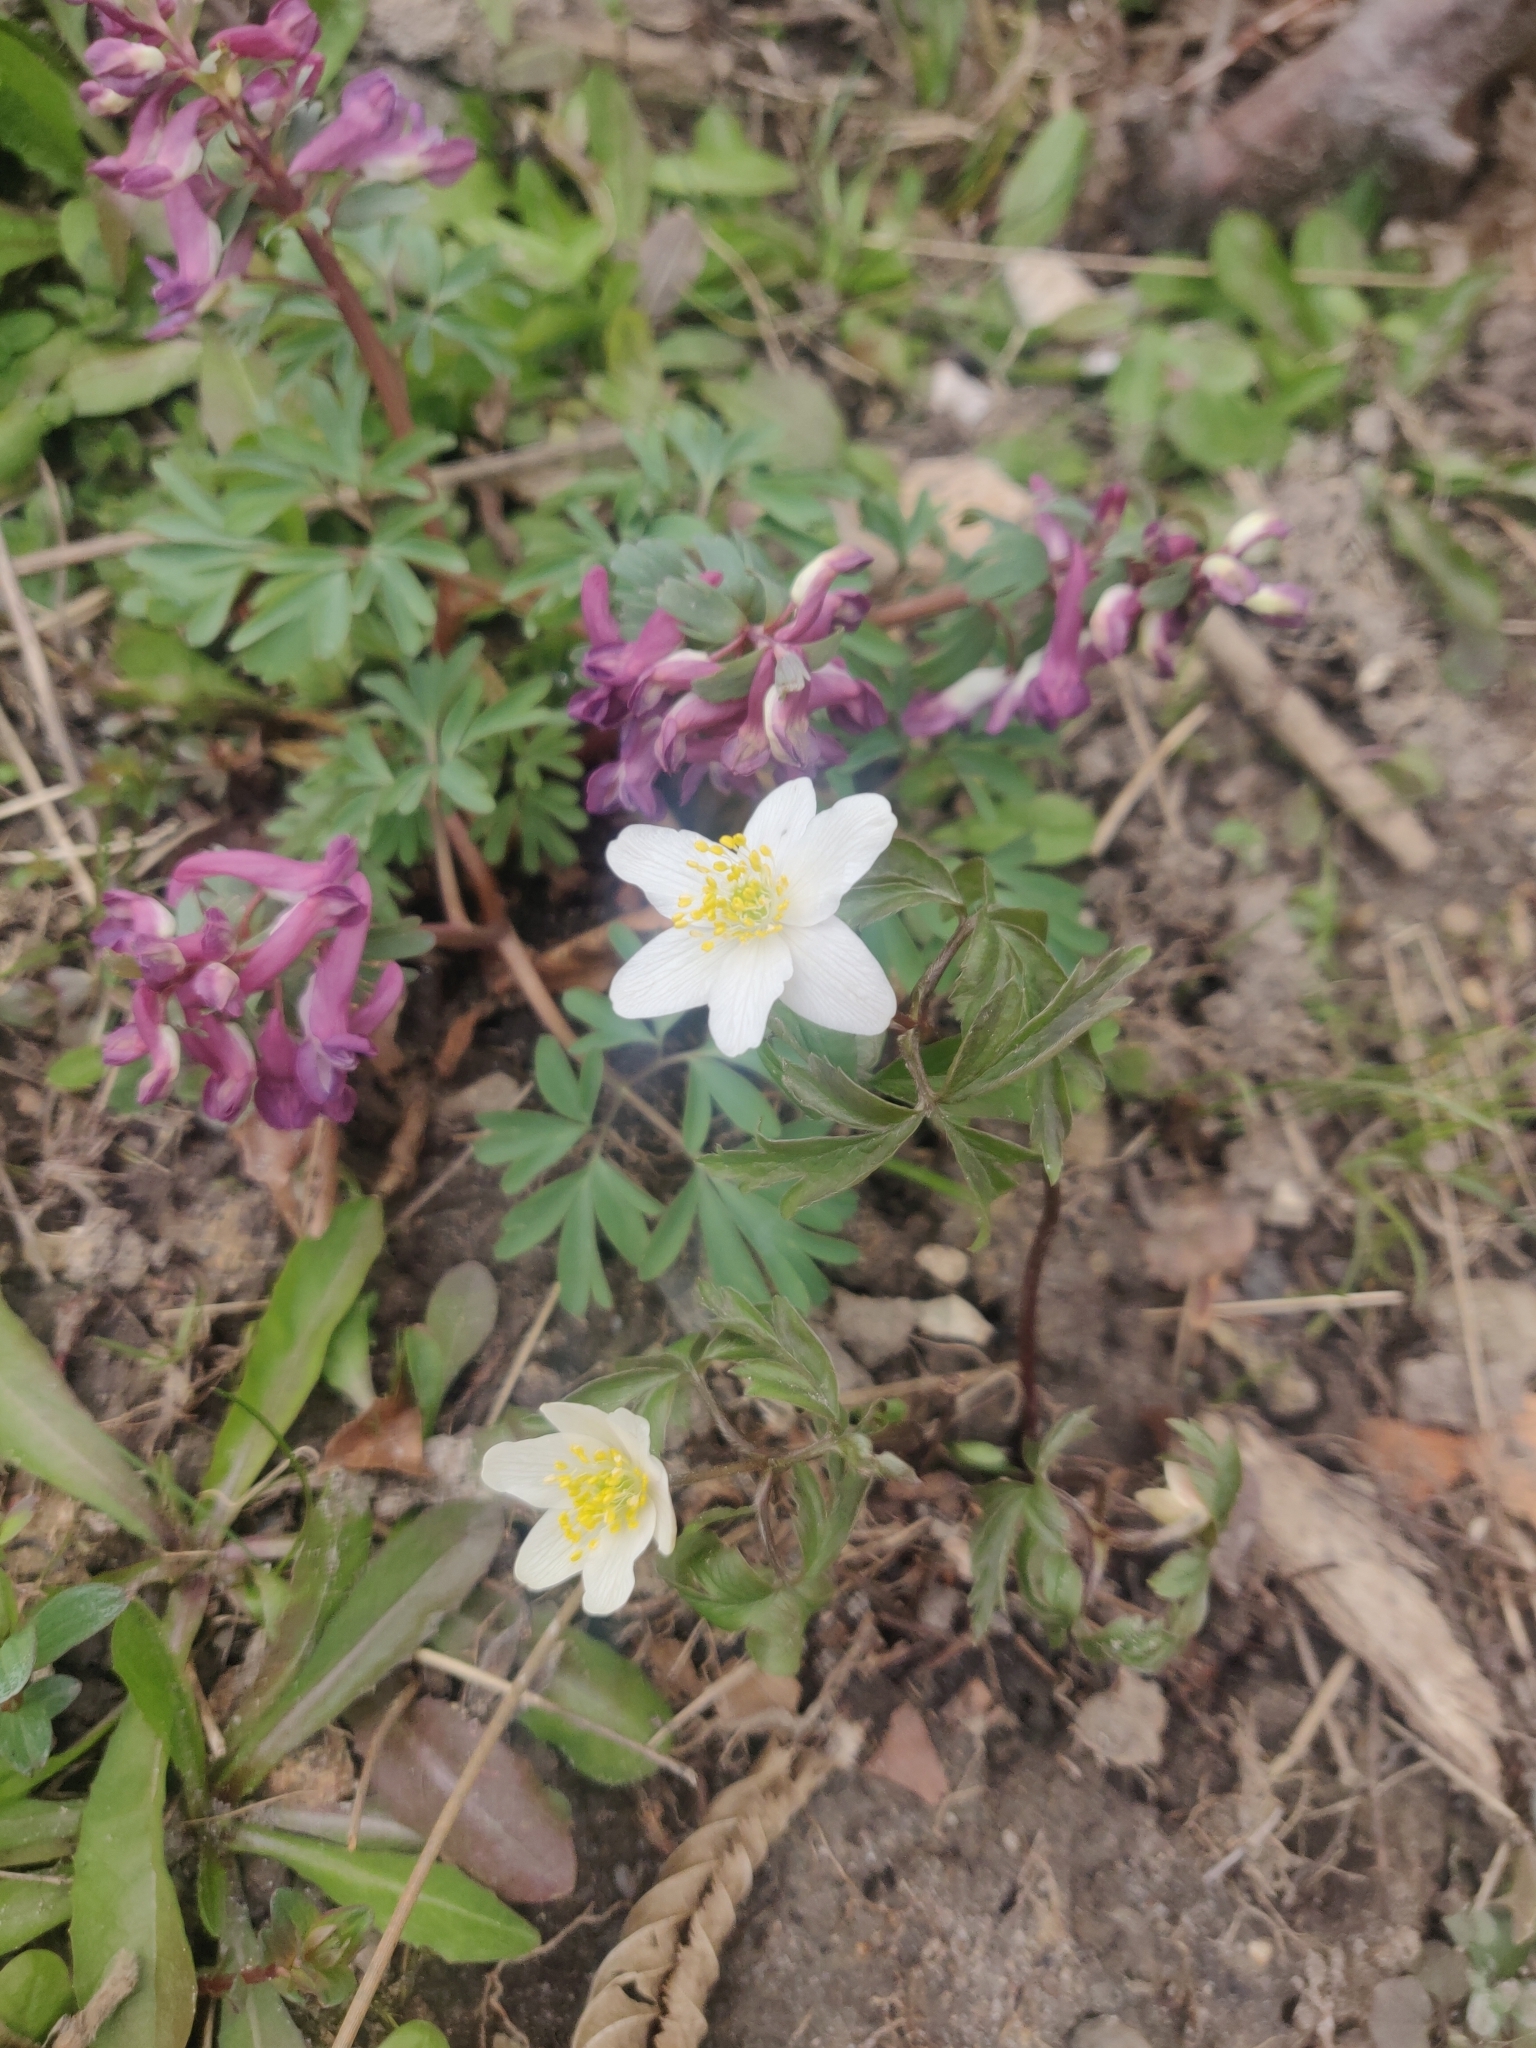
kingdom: Plantae
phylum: Tracheophyta
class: Magnoliopsida
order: Ranunculales
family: Ranunculaceae
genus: Anemone
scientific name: Anemone nemorosa
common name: Wood anemone
